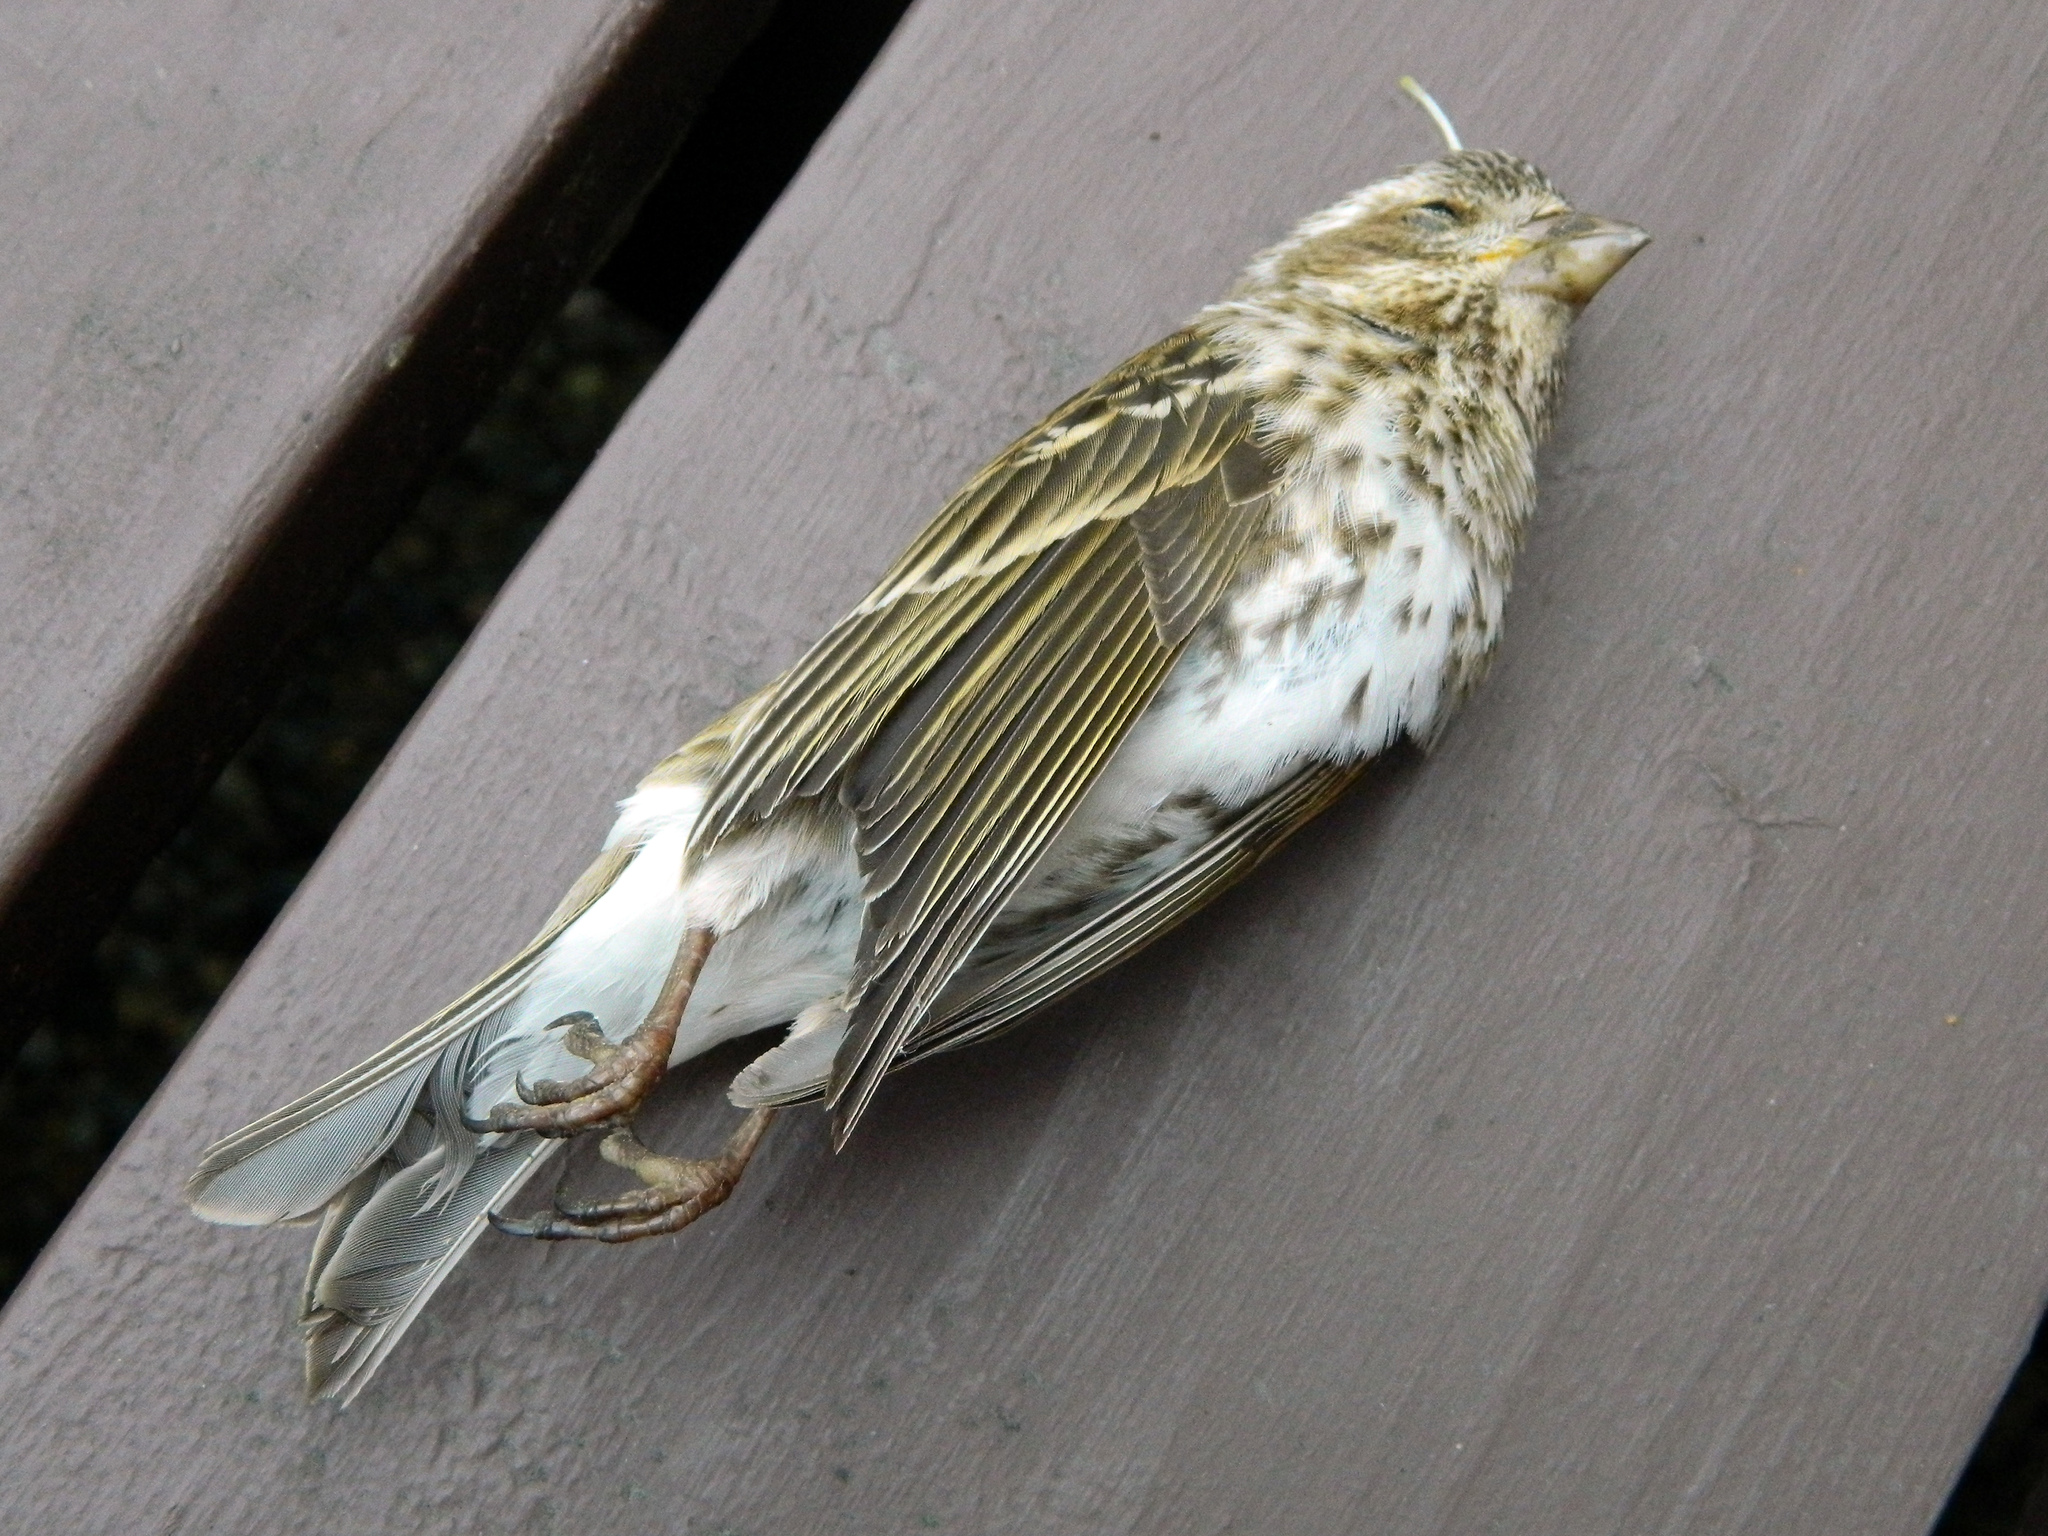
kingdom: Animalia
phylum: Chordata
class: Aves
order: Passeriformes
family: Fringillidae
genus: Haemorhous
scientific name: Haemorhous purpureus
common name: Purple finch
